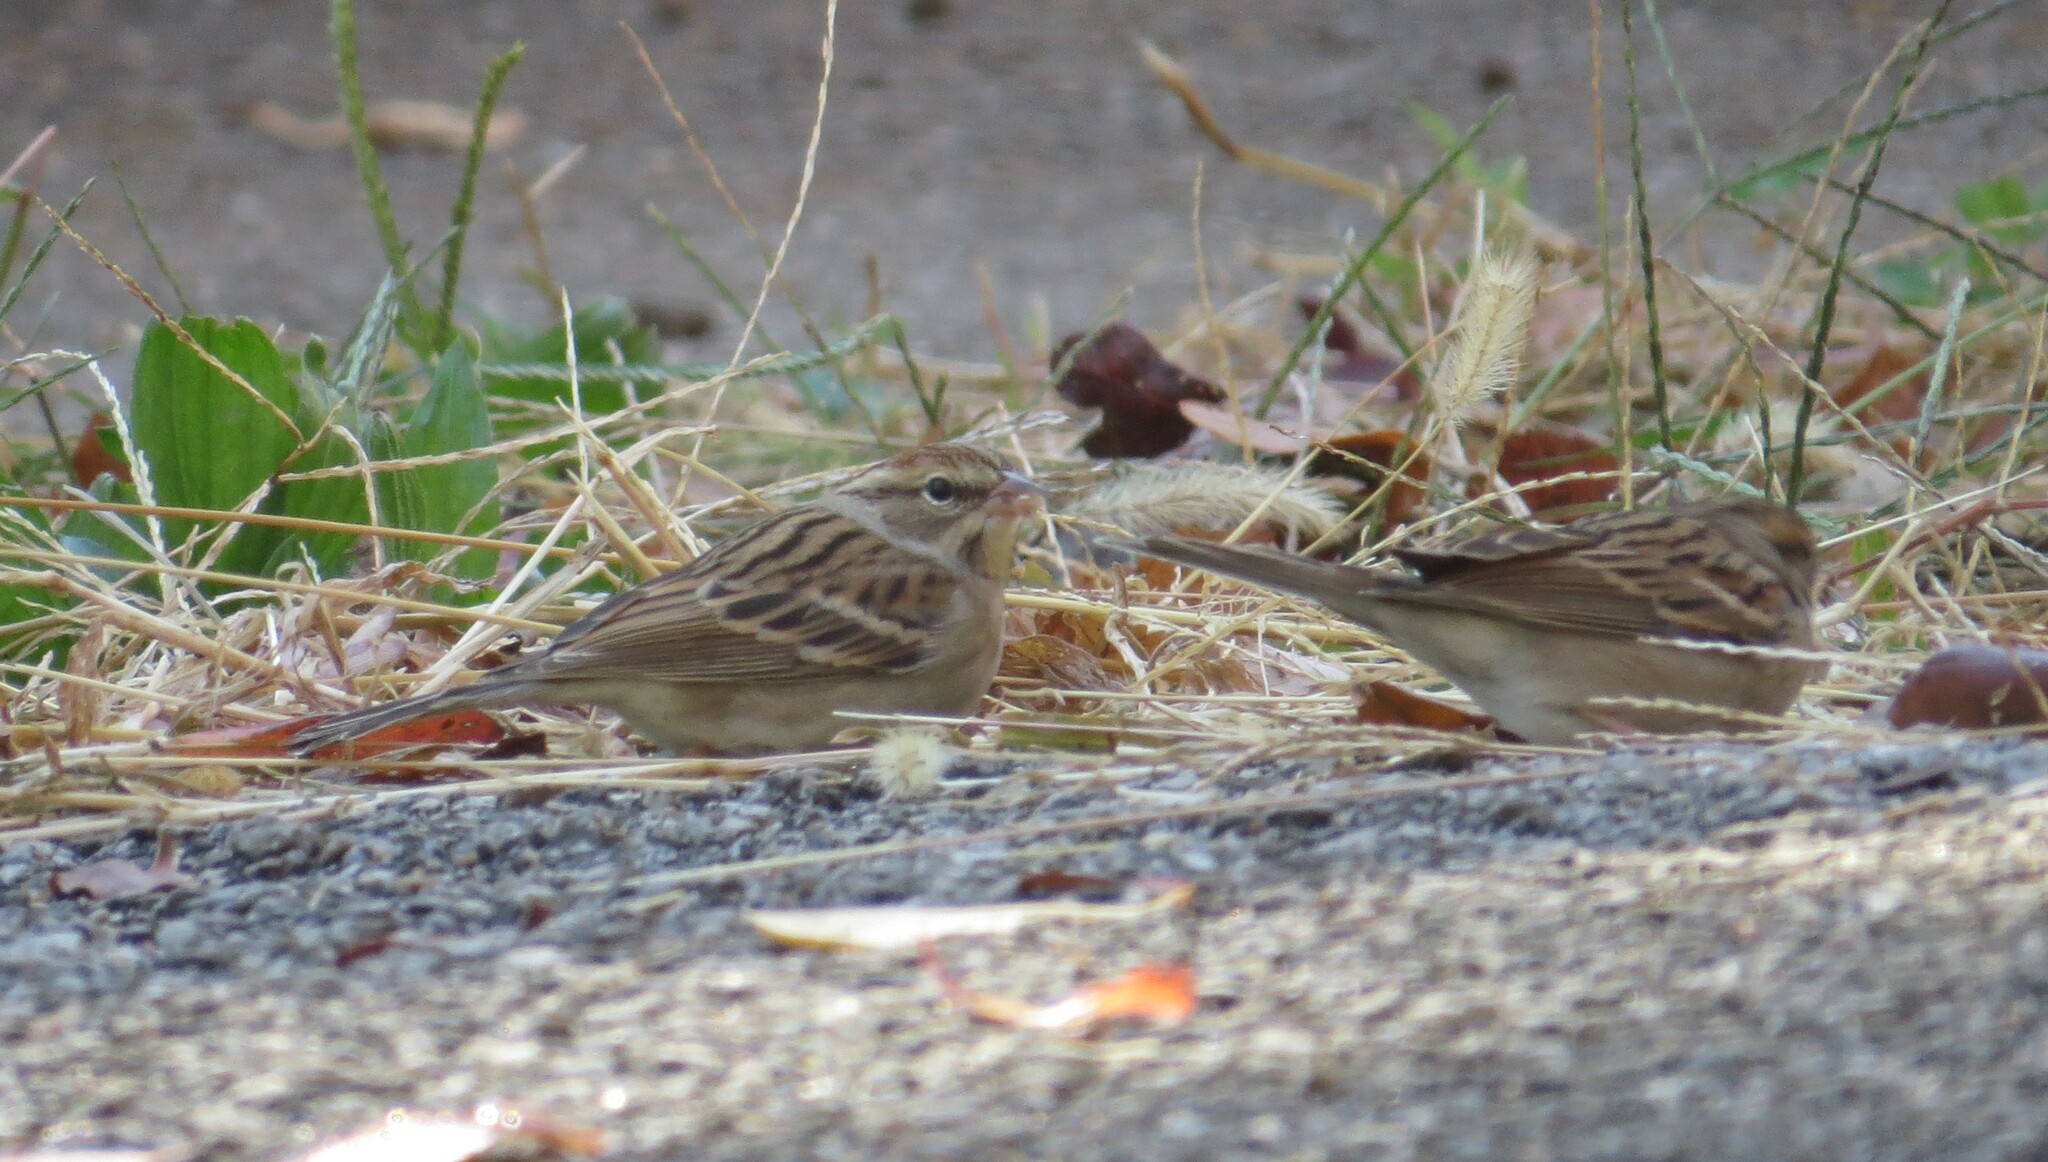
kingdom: Animalia
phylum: Chordata
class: Aves
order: Passeriformes
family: Passerellidae
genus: Spizella
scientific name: Spizella passerina
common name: Chipping sparrow
